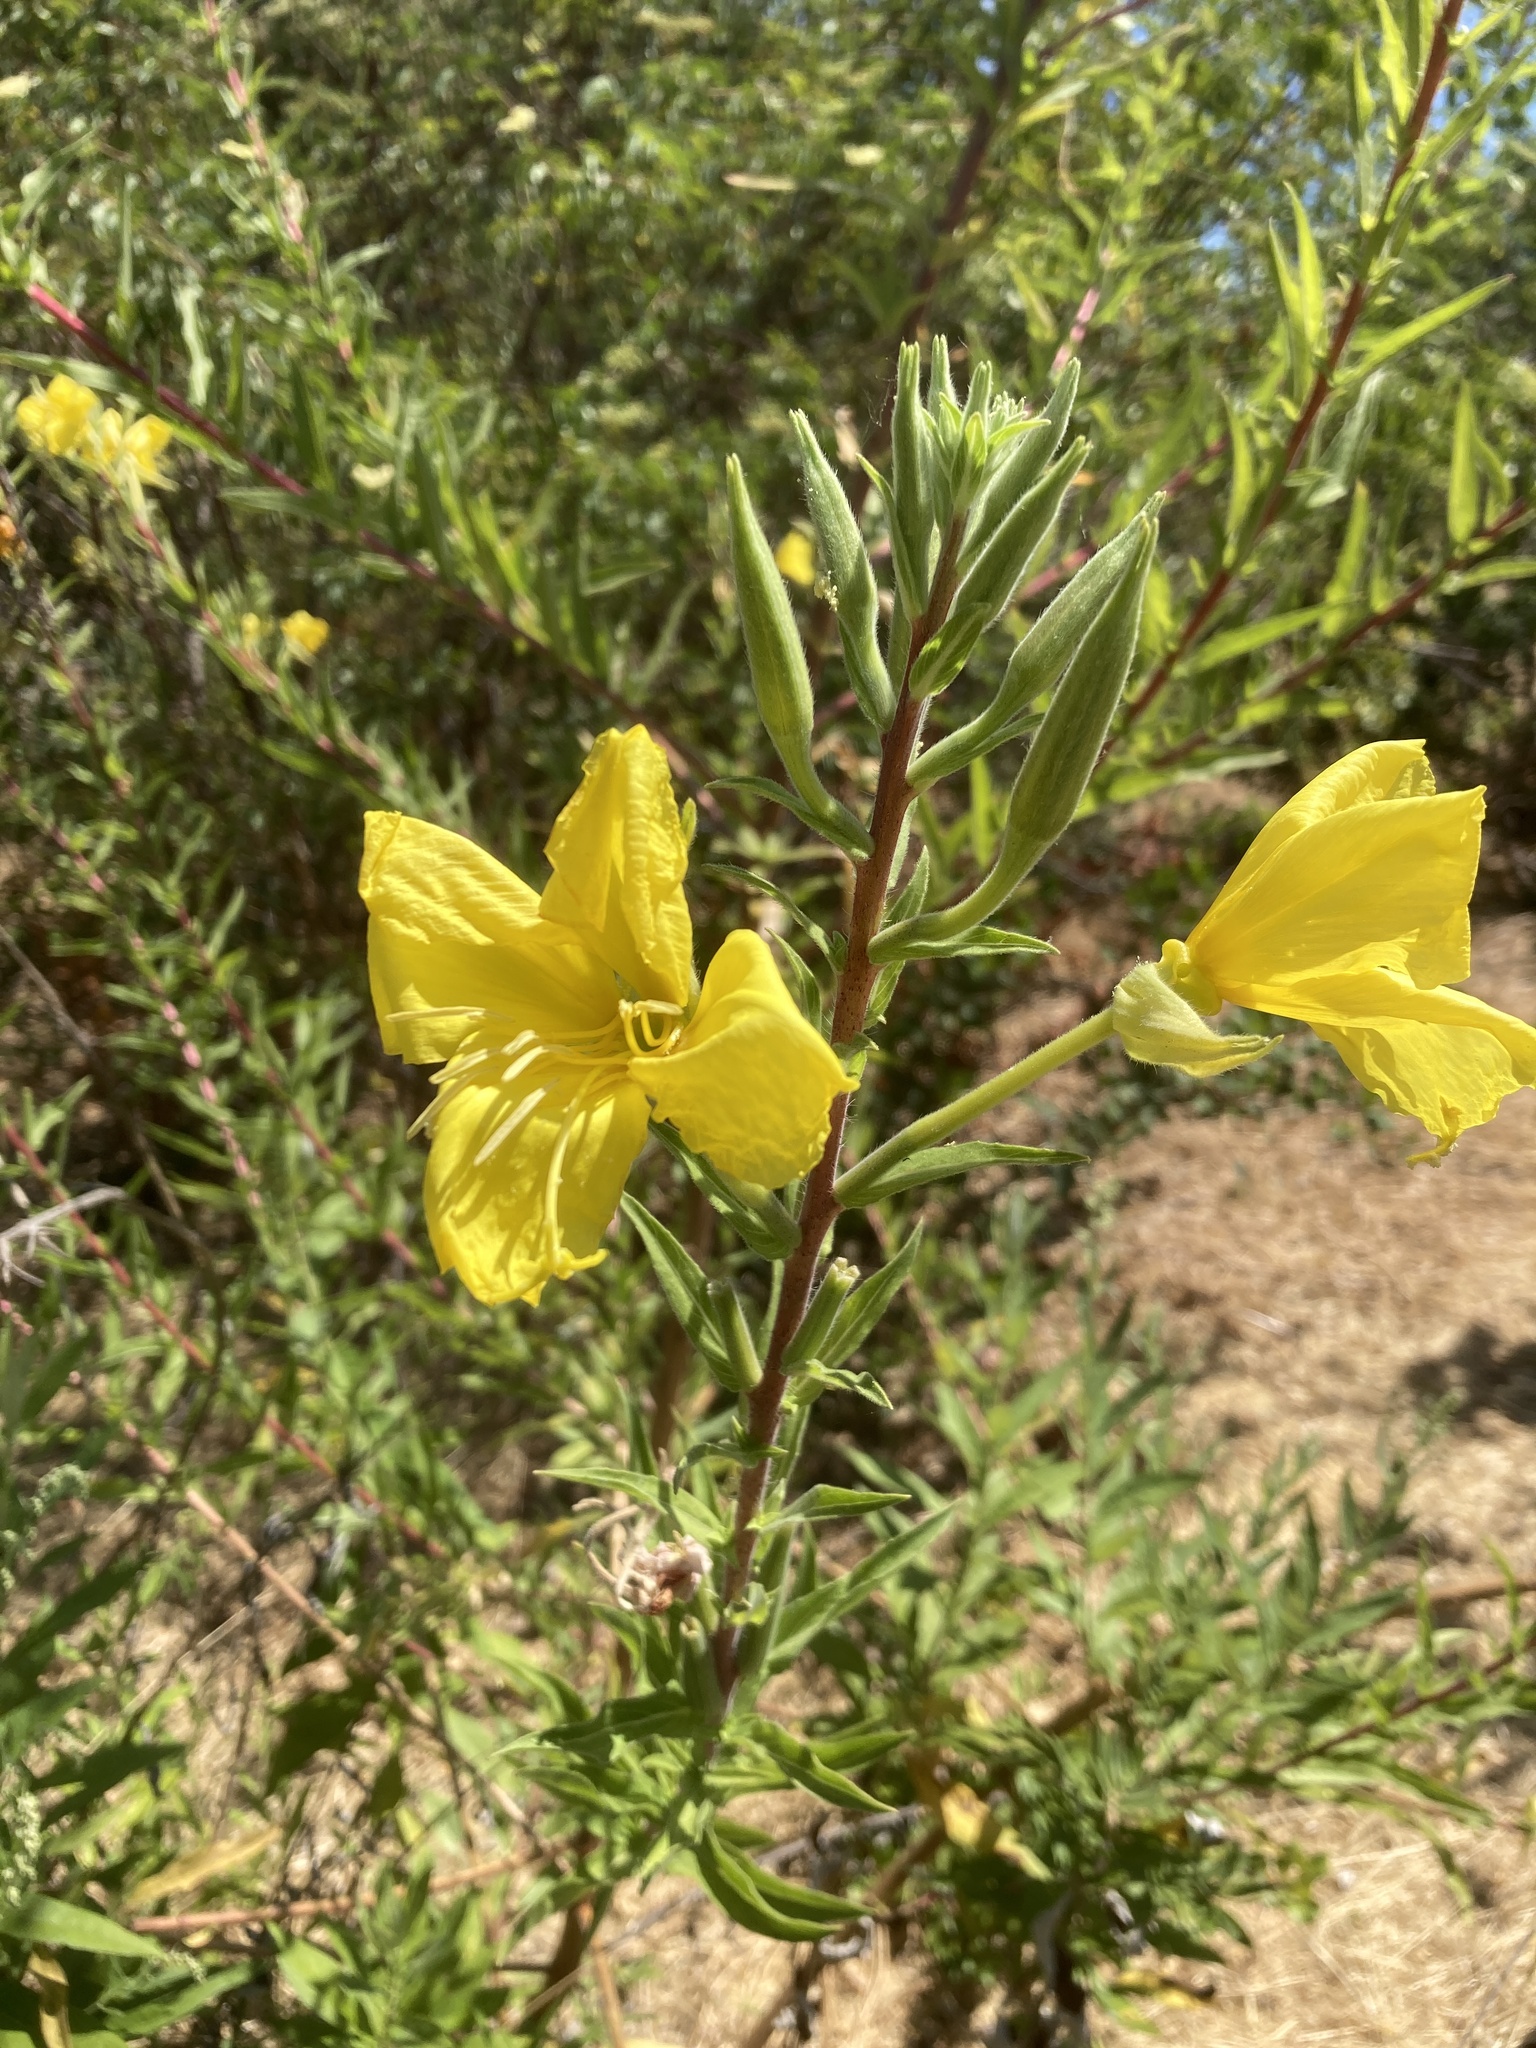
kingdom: Plantae
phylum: Tracheophyta
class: Magnoliopsida
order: Myrtales
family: Onagraceae
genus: Oenothera
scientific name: Oenothera elata
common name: Hooker's evening-primrose
